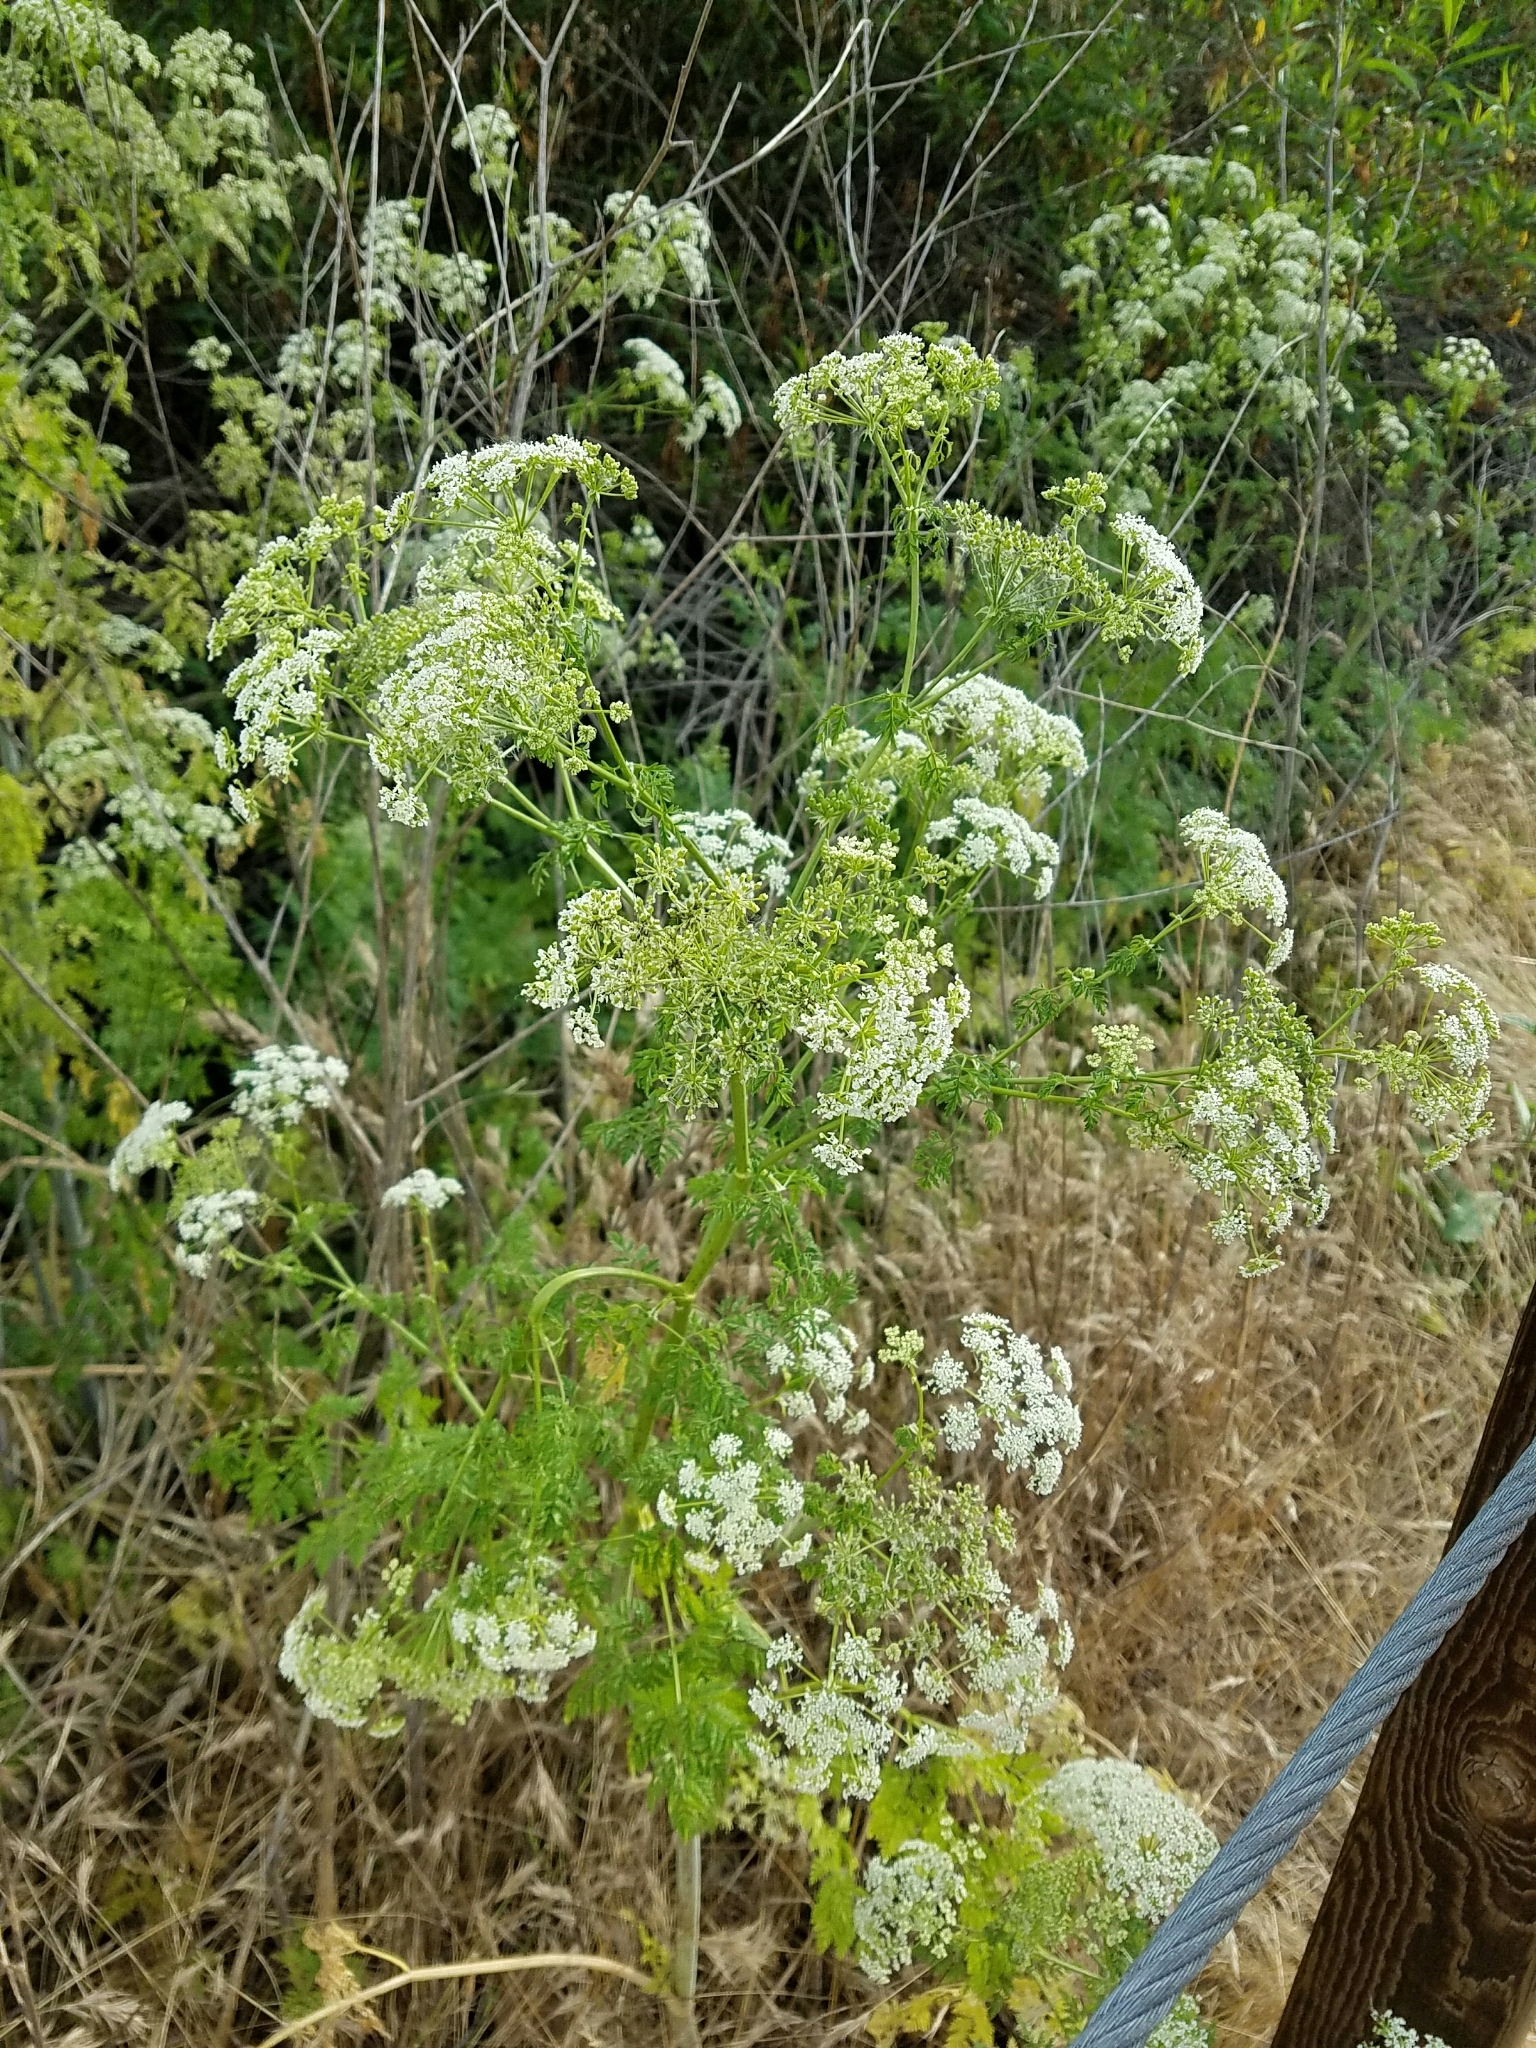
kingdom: Plantae
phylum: Tracheophyta
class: Magnoliopsida
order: Apiales
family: Apiaceae
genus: Conium
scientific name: Conium maculatum
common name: Hemlock
